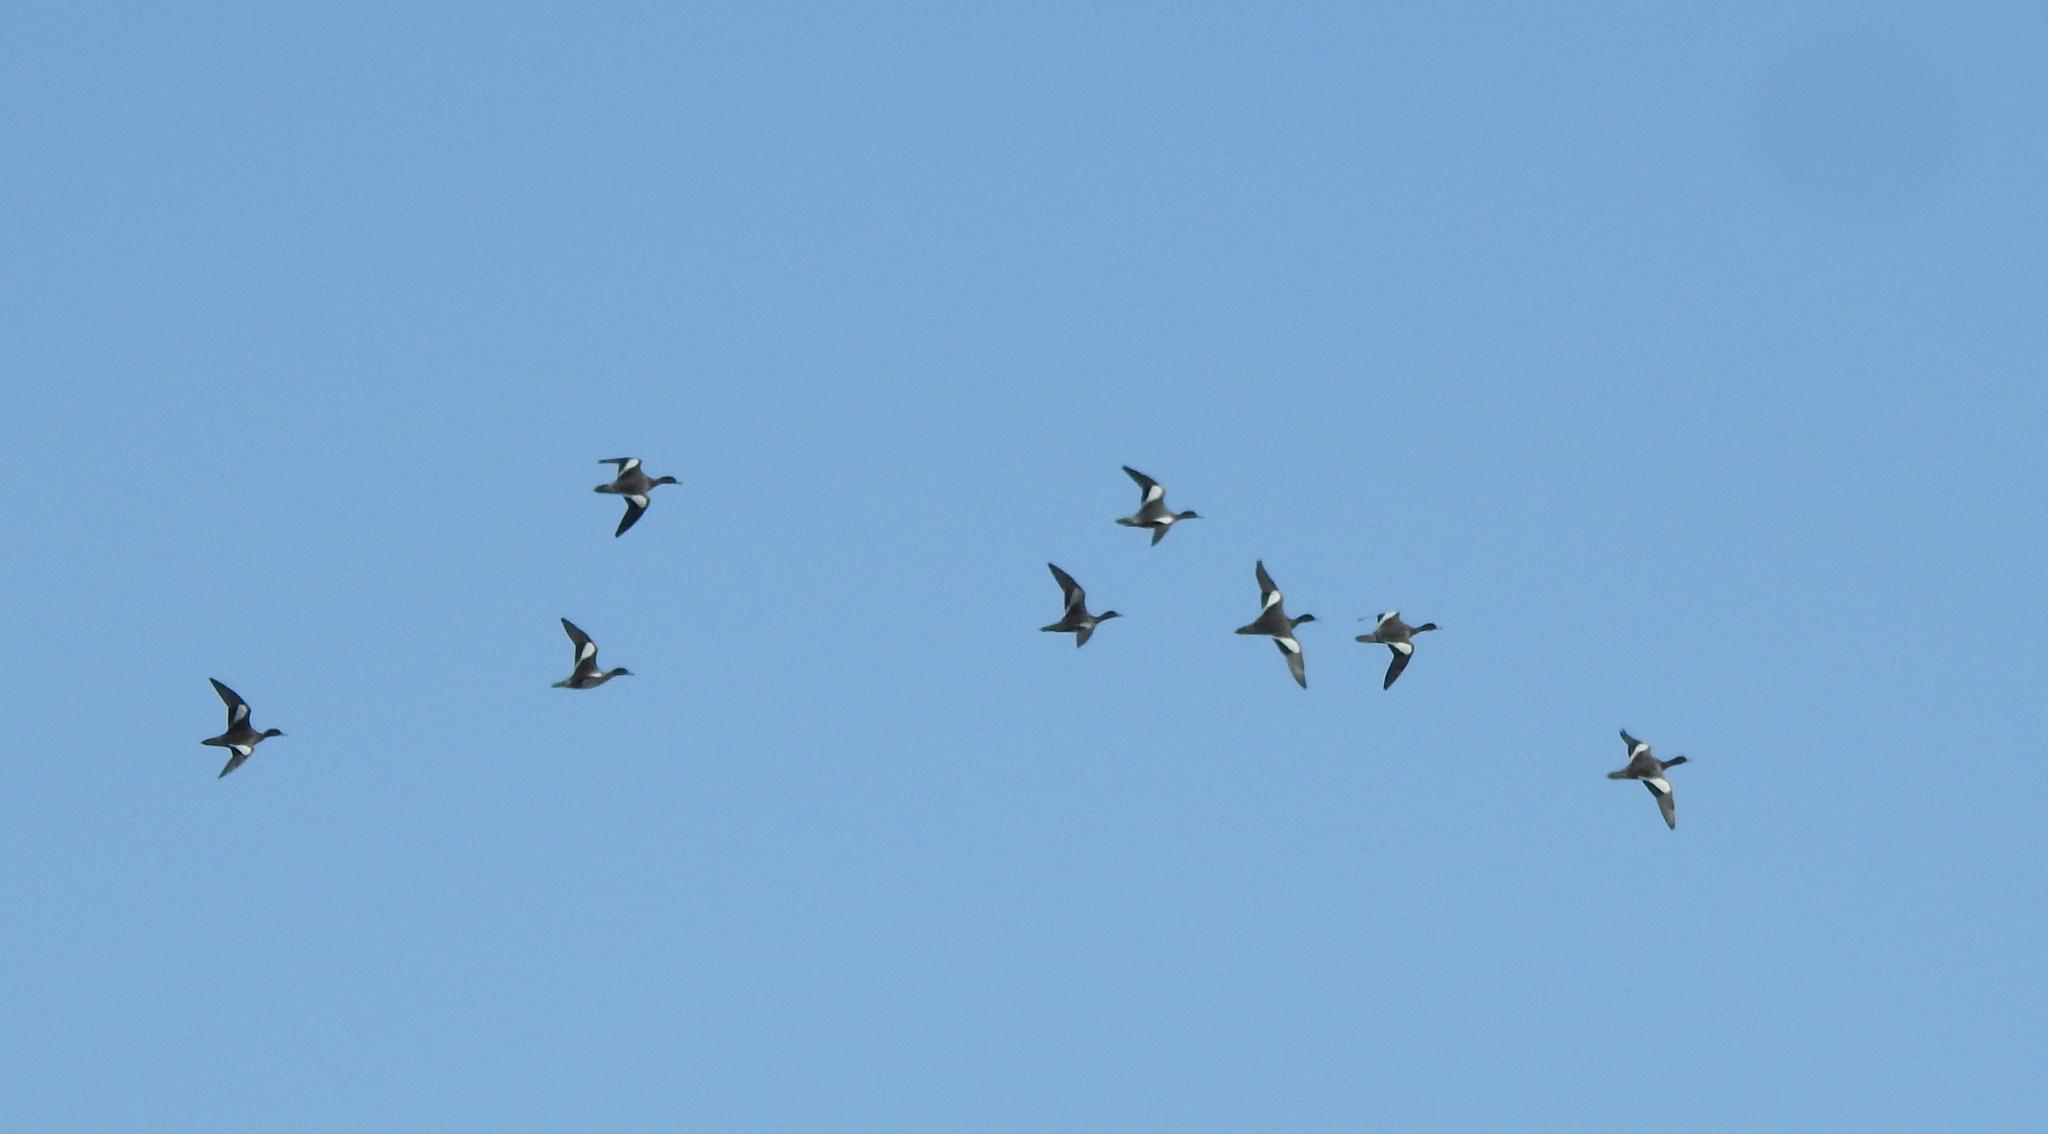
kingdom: Animalia
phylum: Chordata
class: Aves
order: Anseriformes
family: Anatidae
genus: Mareca
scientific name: Mareca penelope
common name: Eurasian wigeon
